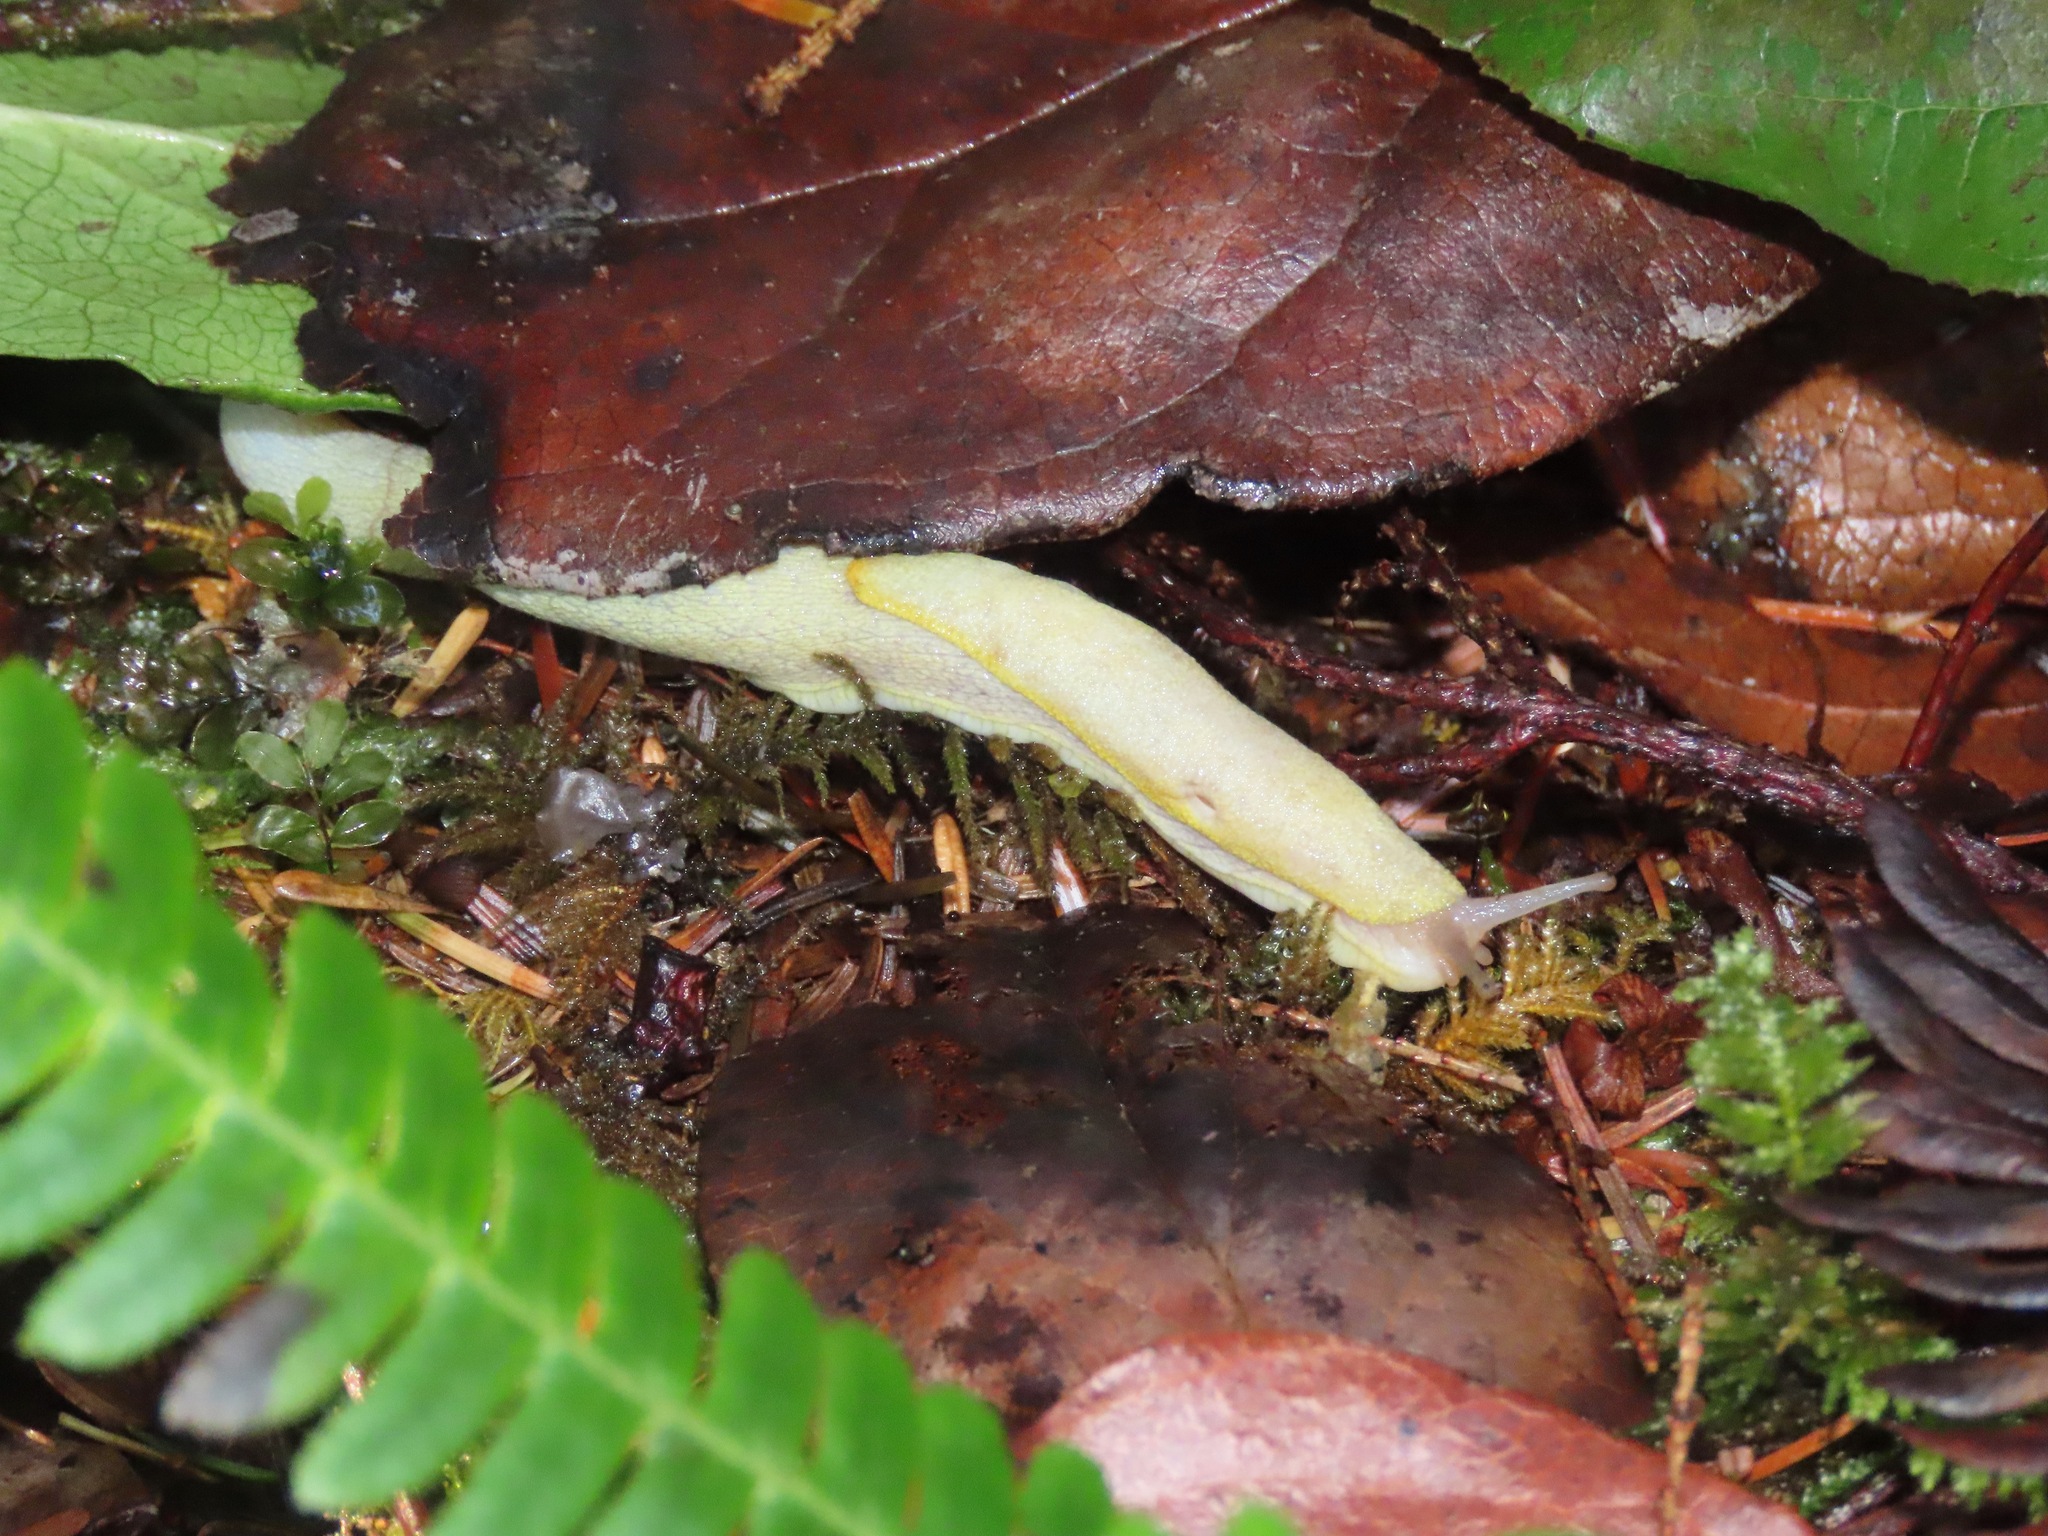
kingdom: Animalia
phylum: Mollusca
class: Gastropoda
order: Stylommatophora
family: Ariolimacidae
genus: Prophysaon
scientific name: Prophysaon foliolatum
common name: Yellow-bordered taildropper
